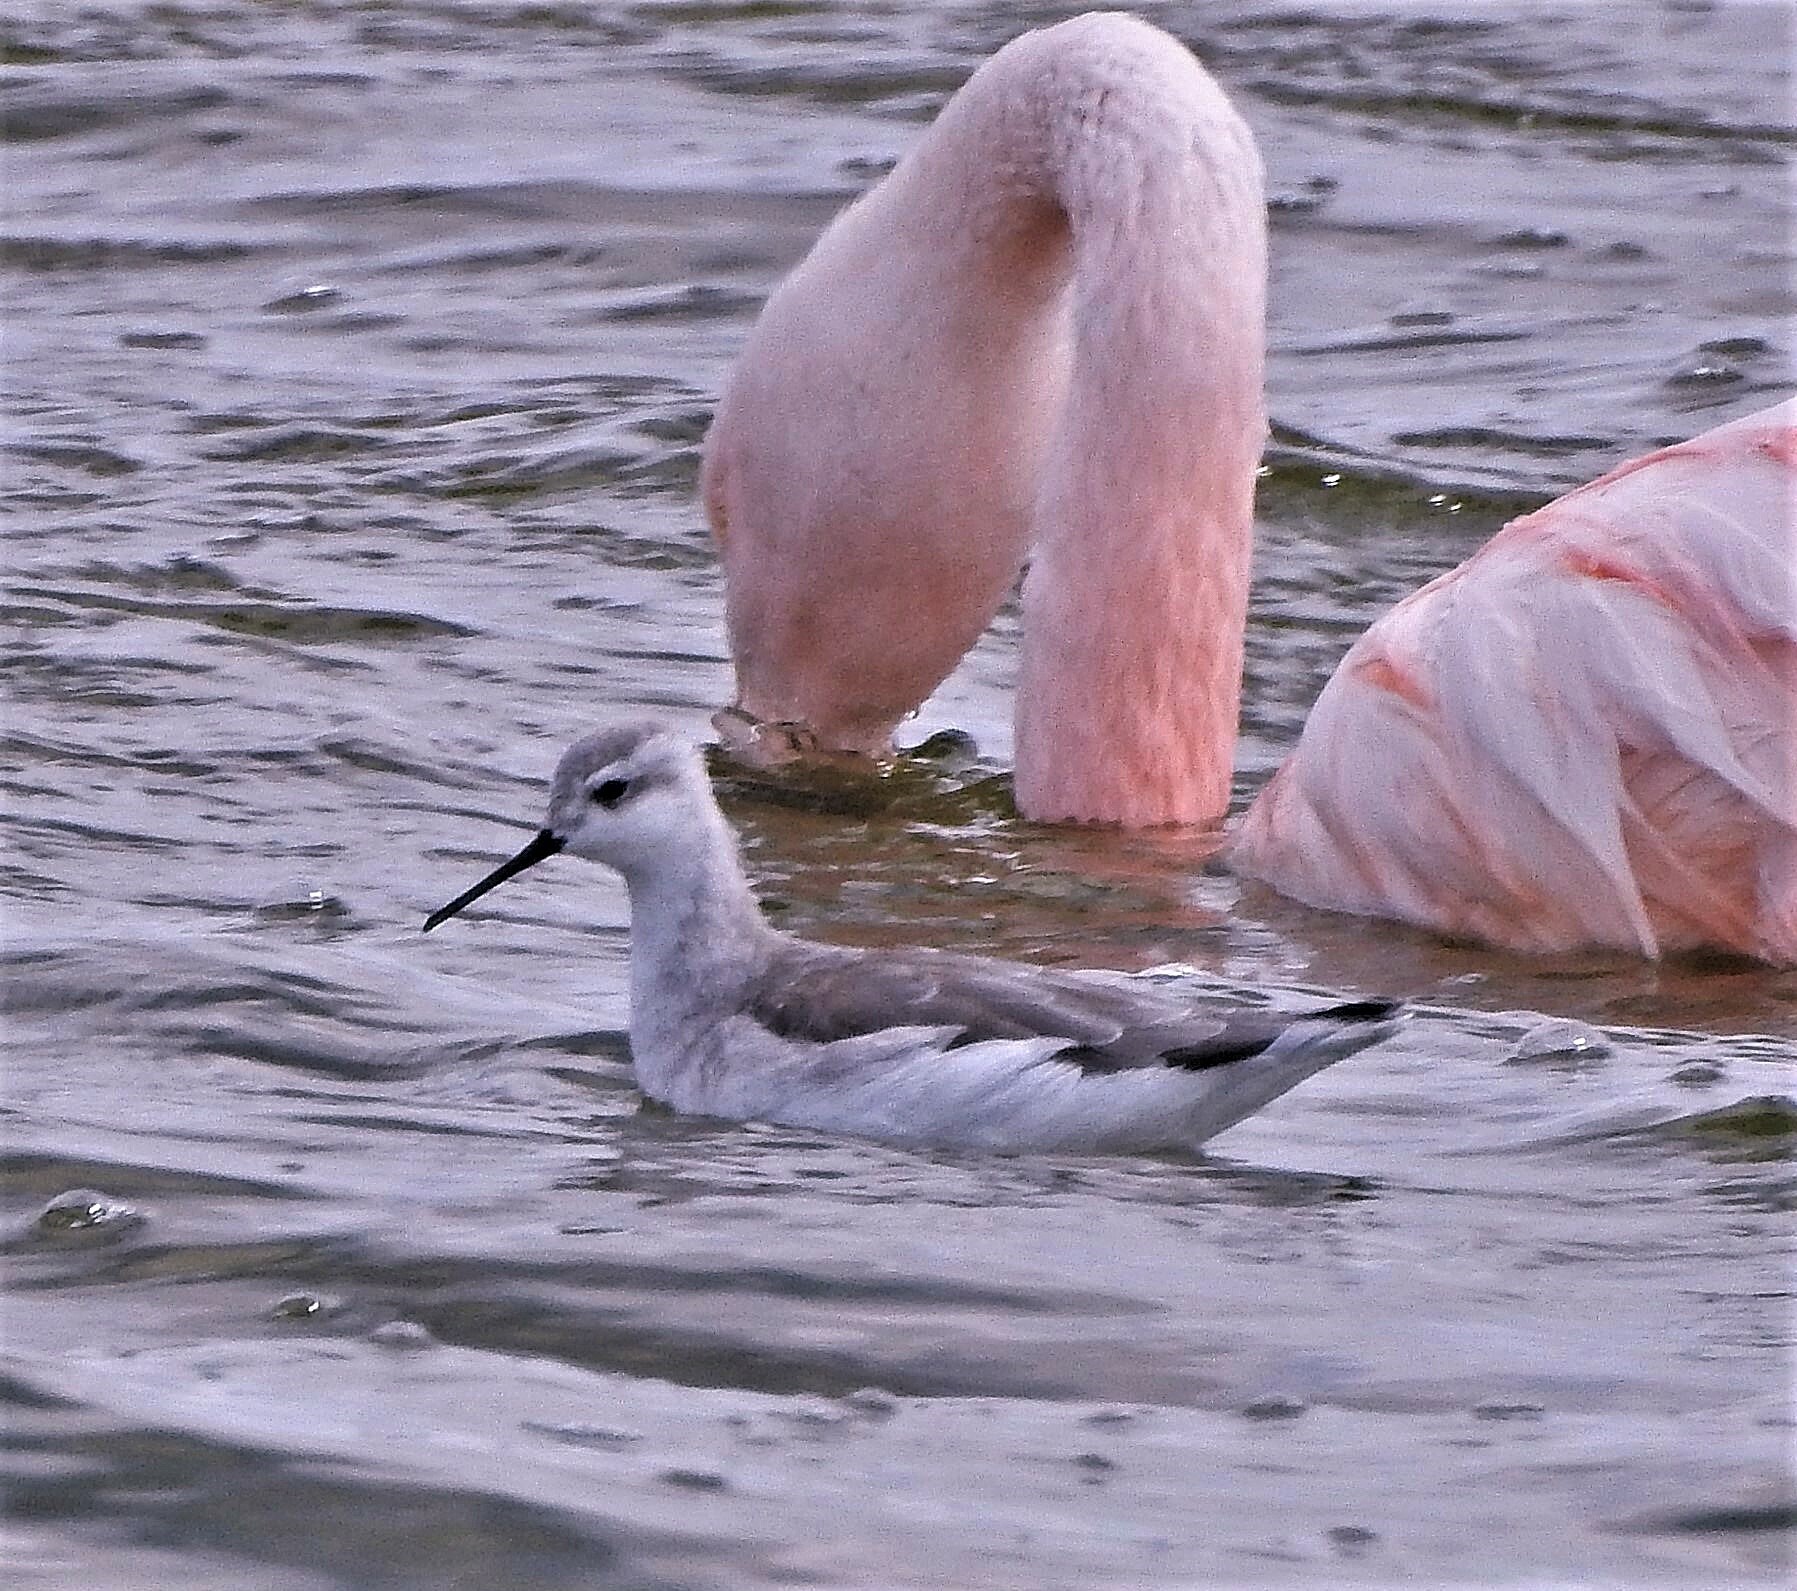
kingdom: Animalia
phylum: Chordata
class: Aves
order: Charadriiformes
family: Scolopacidae
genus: Phalaropus
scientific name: Phalaropus tricolor
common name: Wilson's phalarope
